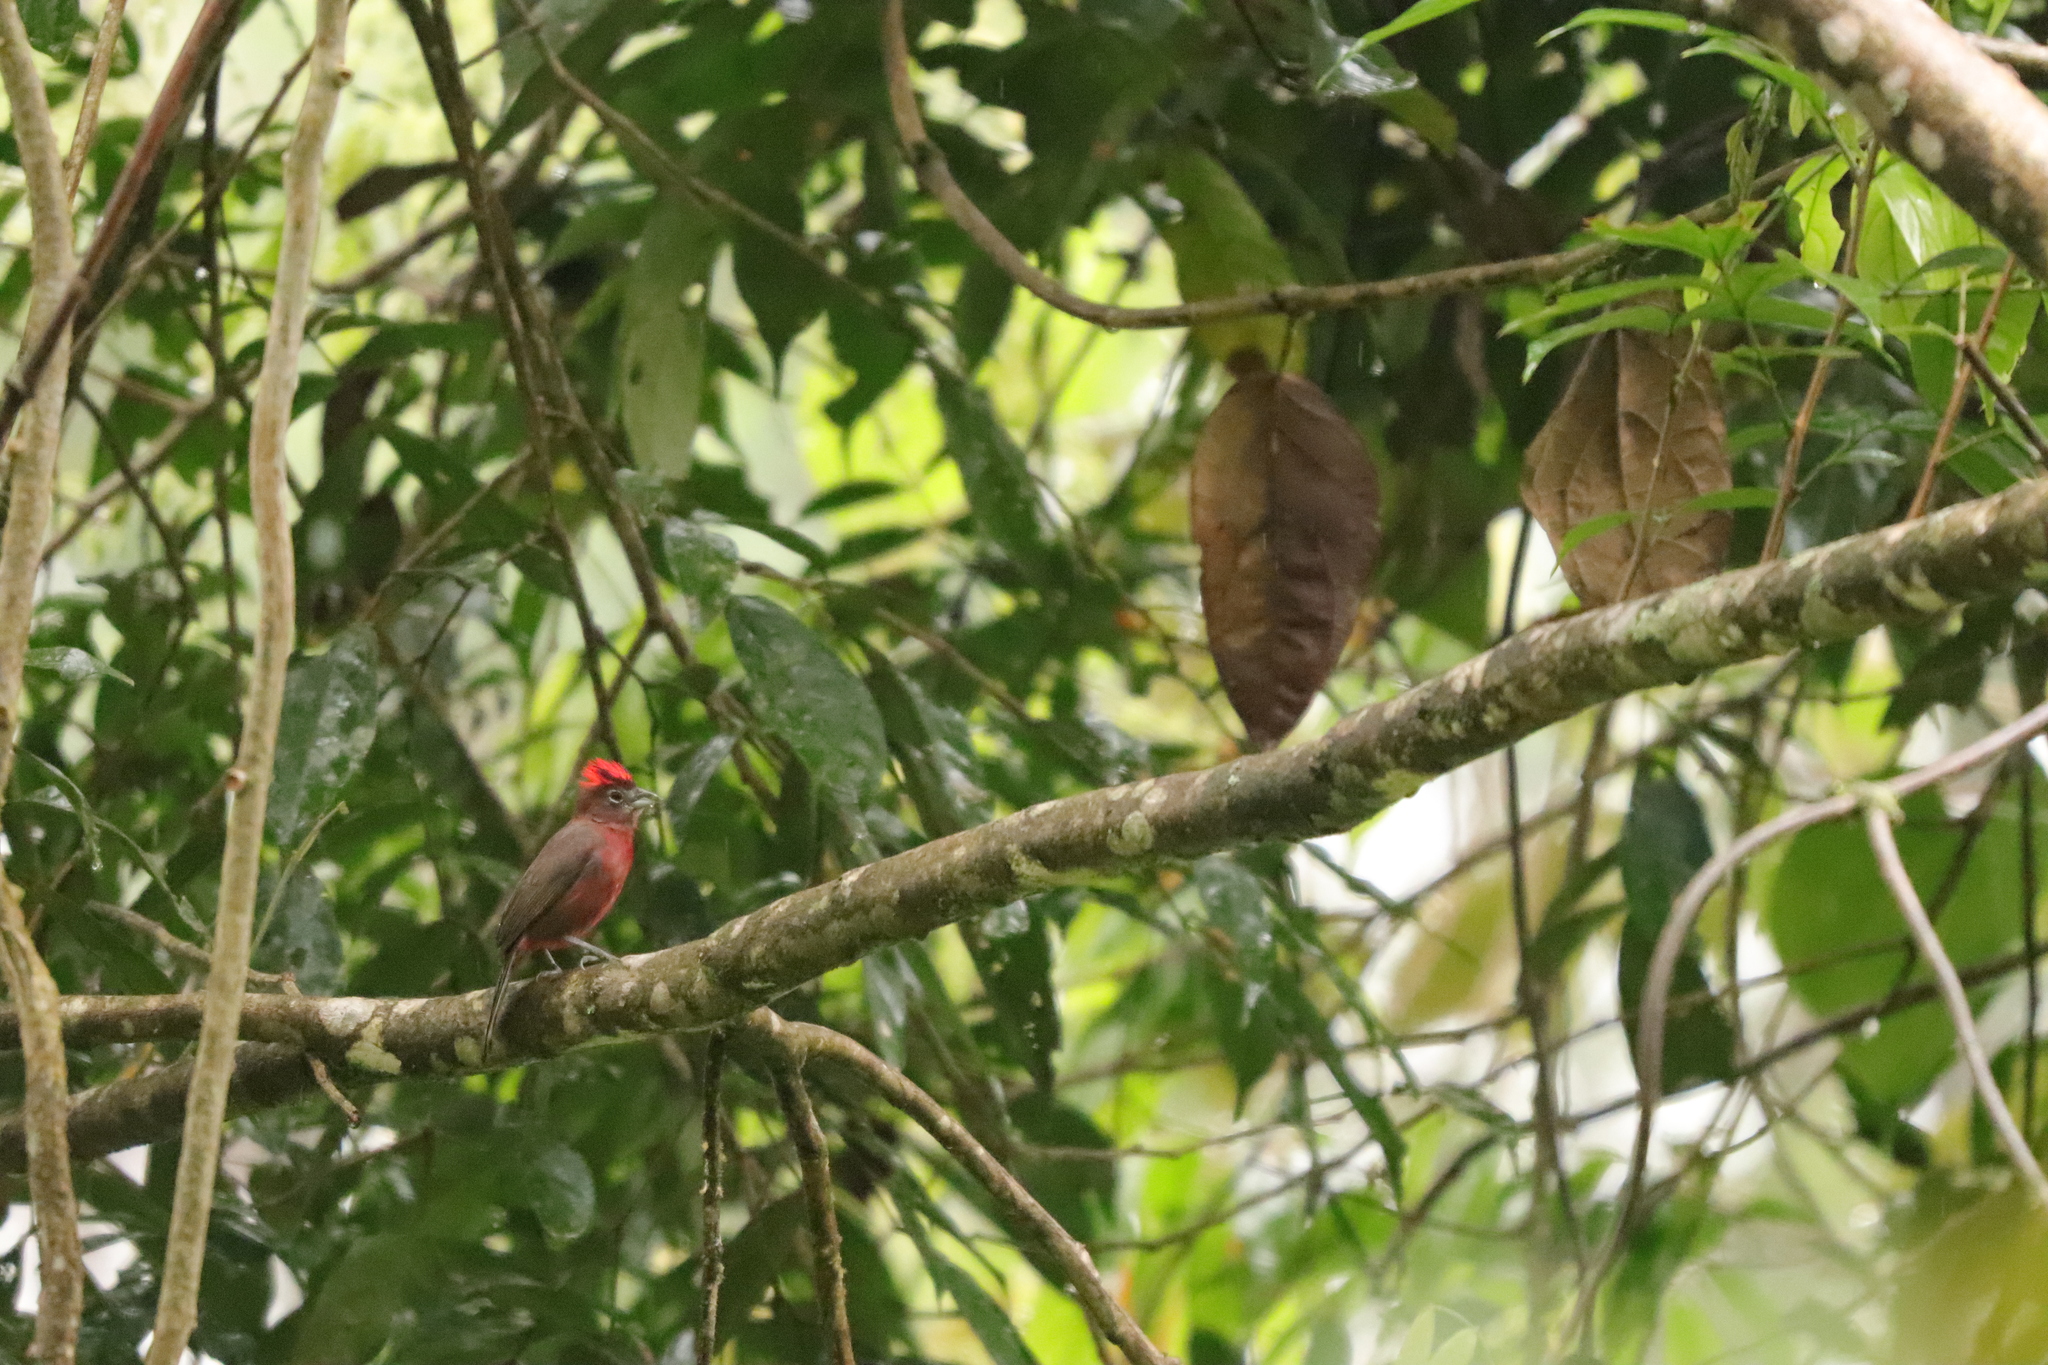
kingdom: Animalia
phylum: Chordata
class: Aves
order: Passeriformes
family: Thraupidae
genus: Coryphospingus
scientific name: Coryphospingus cucullatus
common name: Red pileated finch
